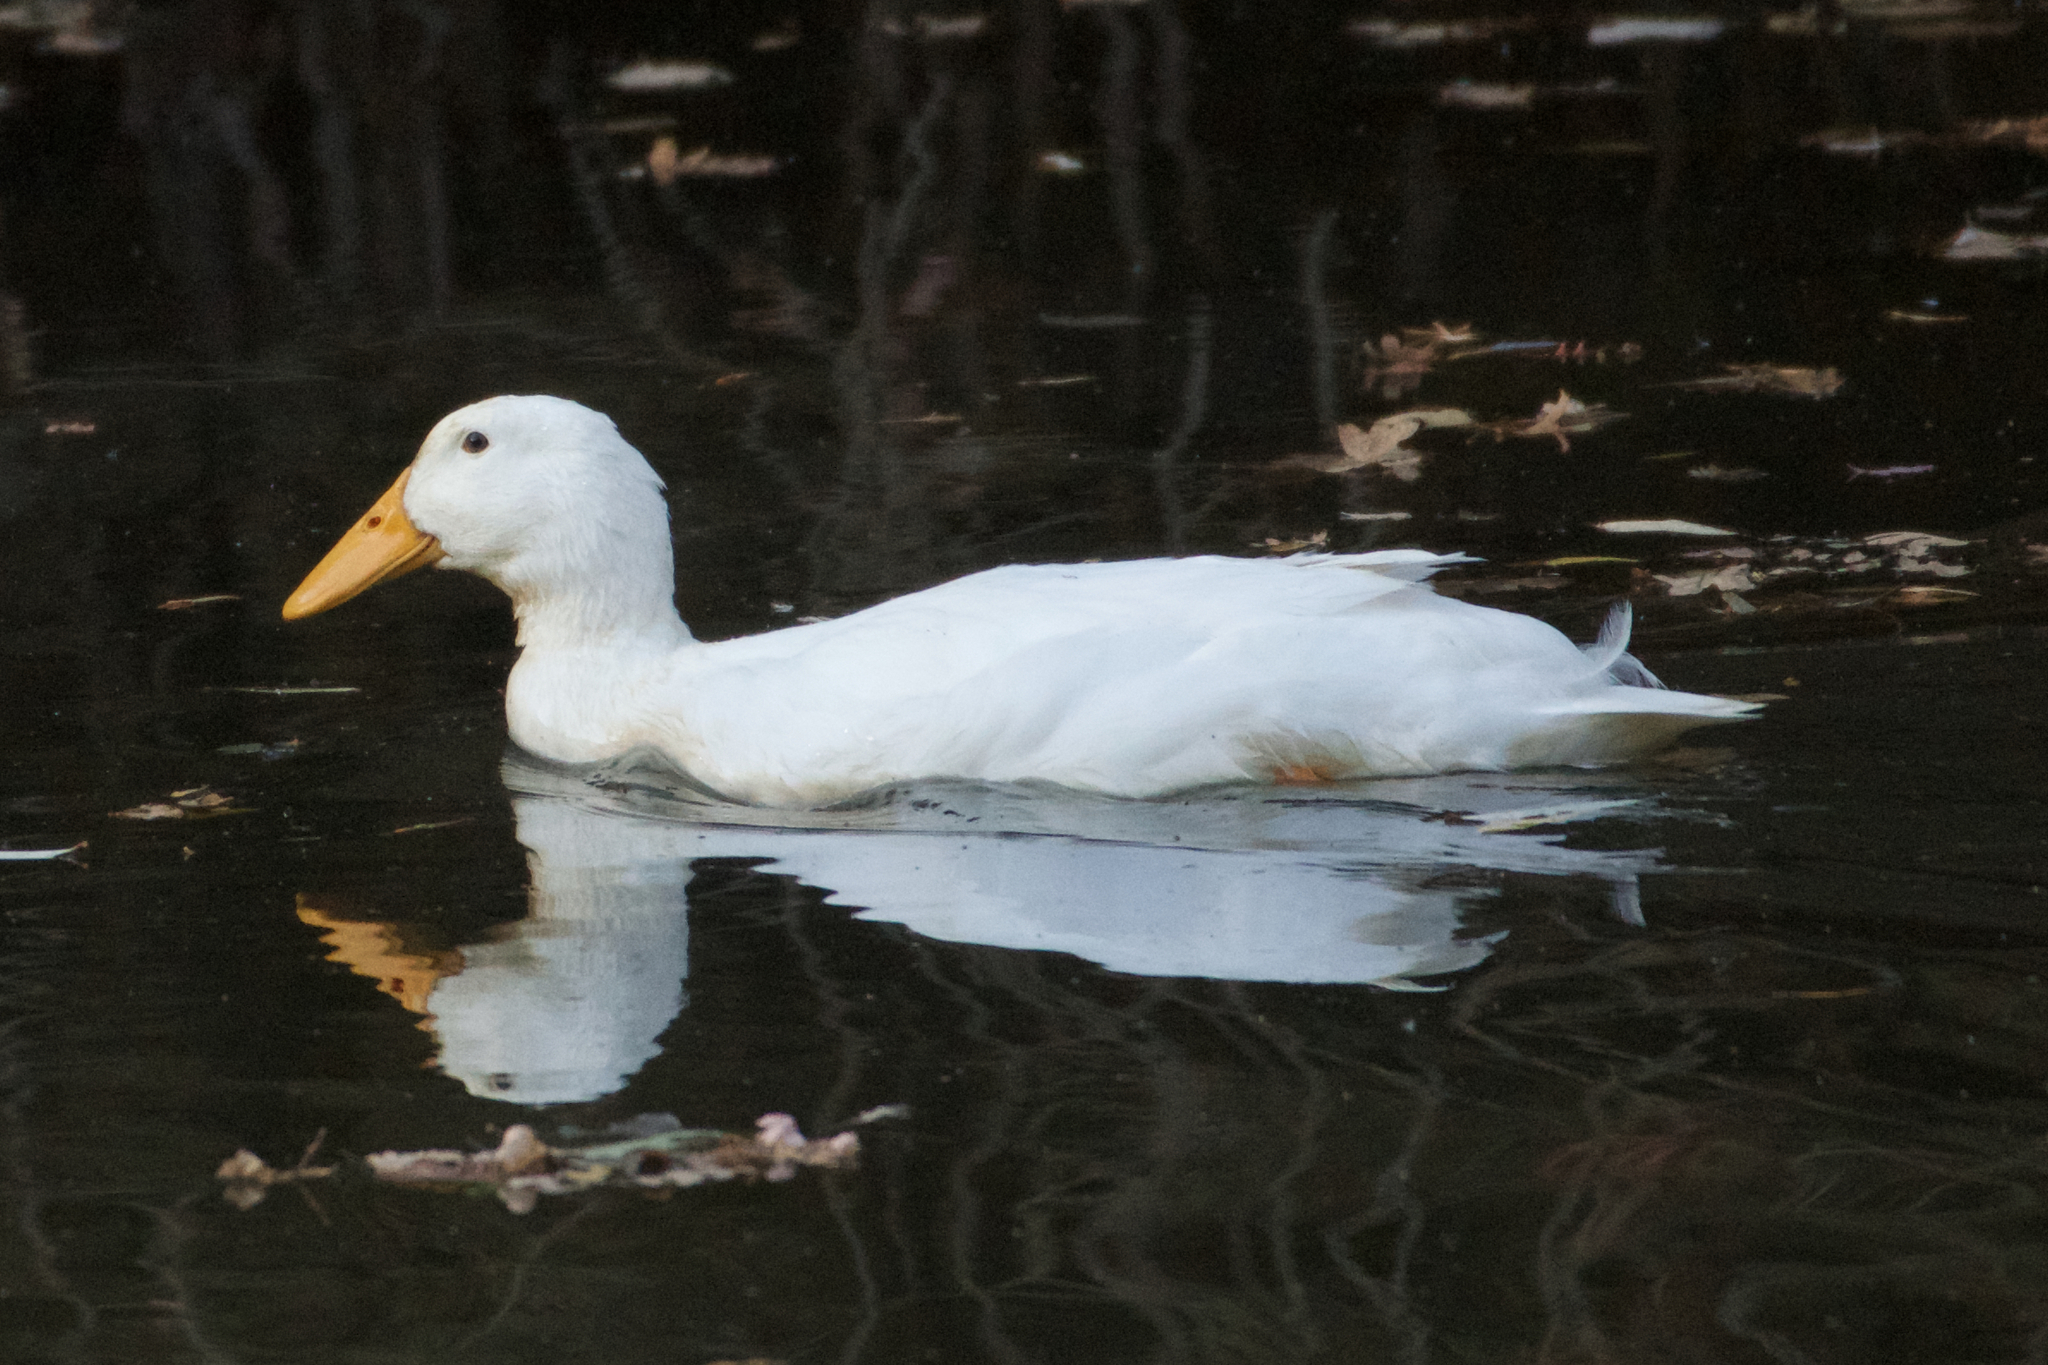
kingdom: Animalia
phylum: Chordata
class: Aves
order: Anseriformes
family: Anatidae
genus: Anas
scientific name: Anas platyrhynchos
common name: Mallard
